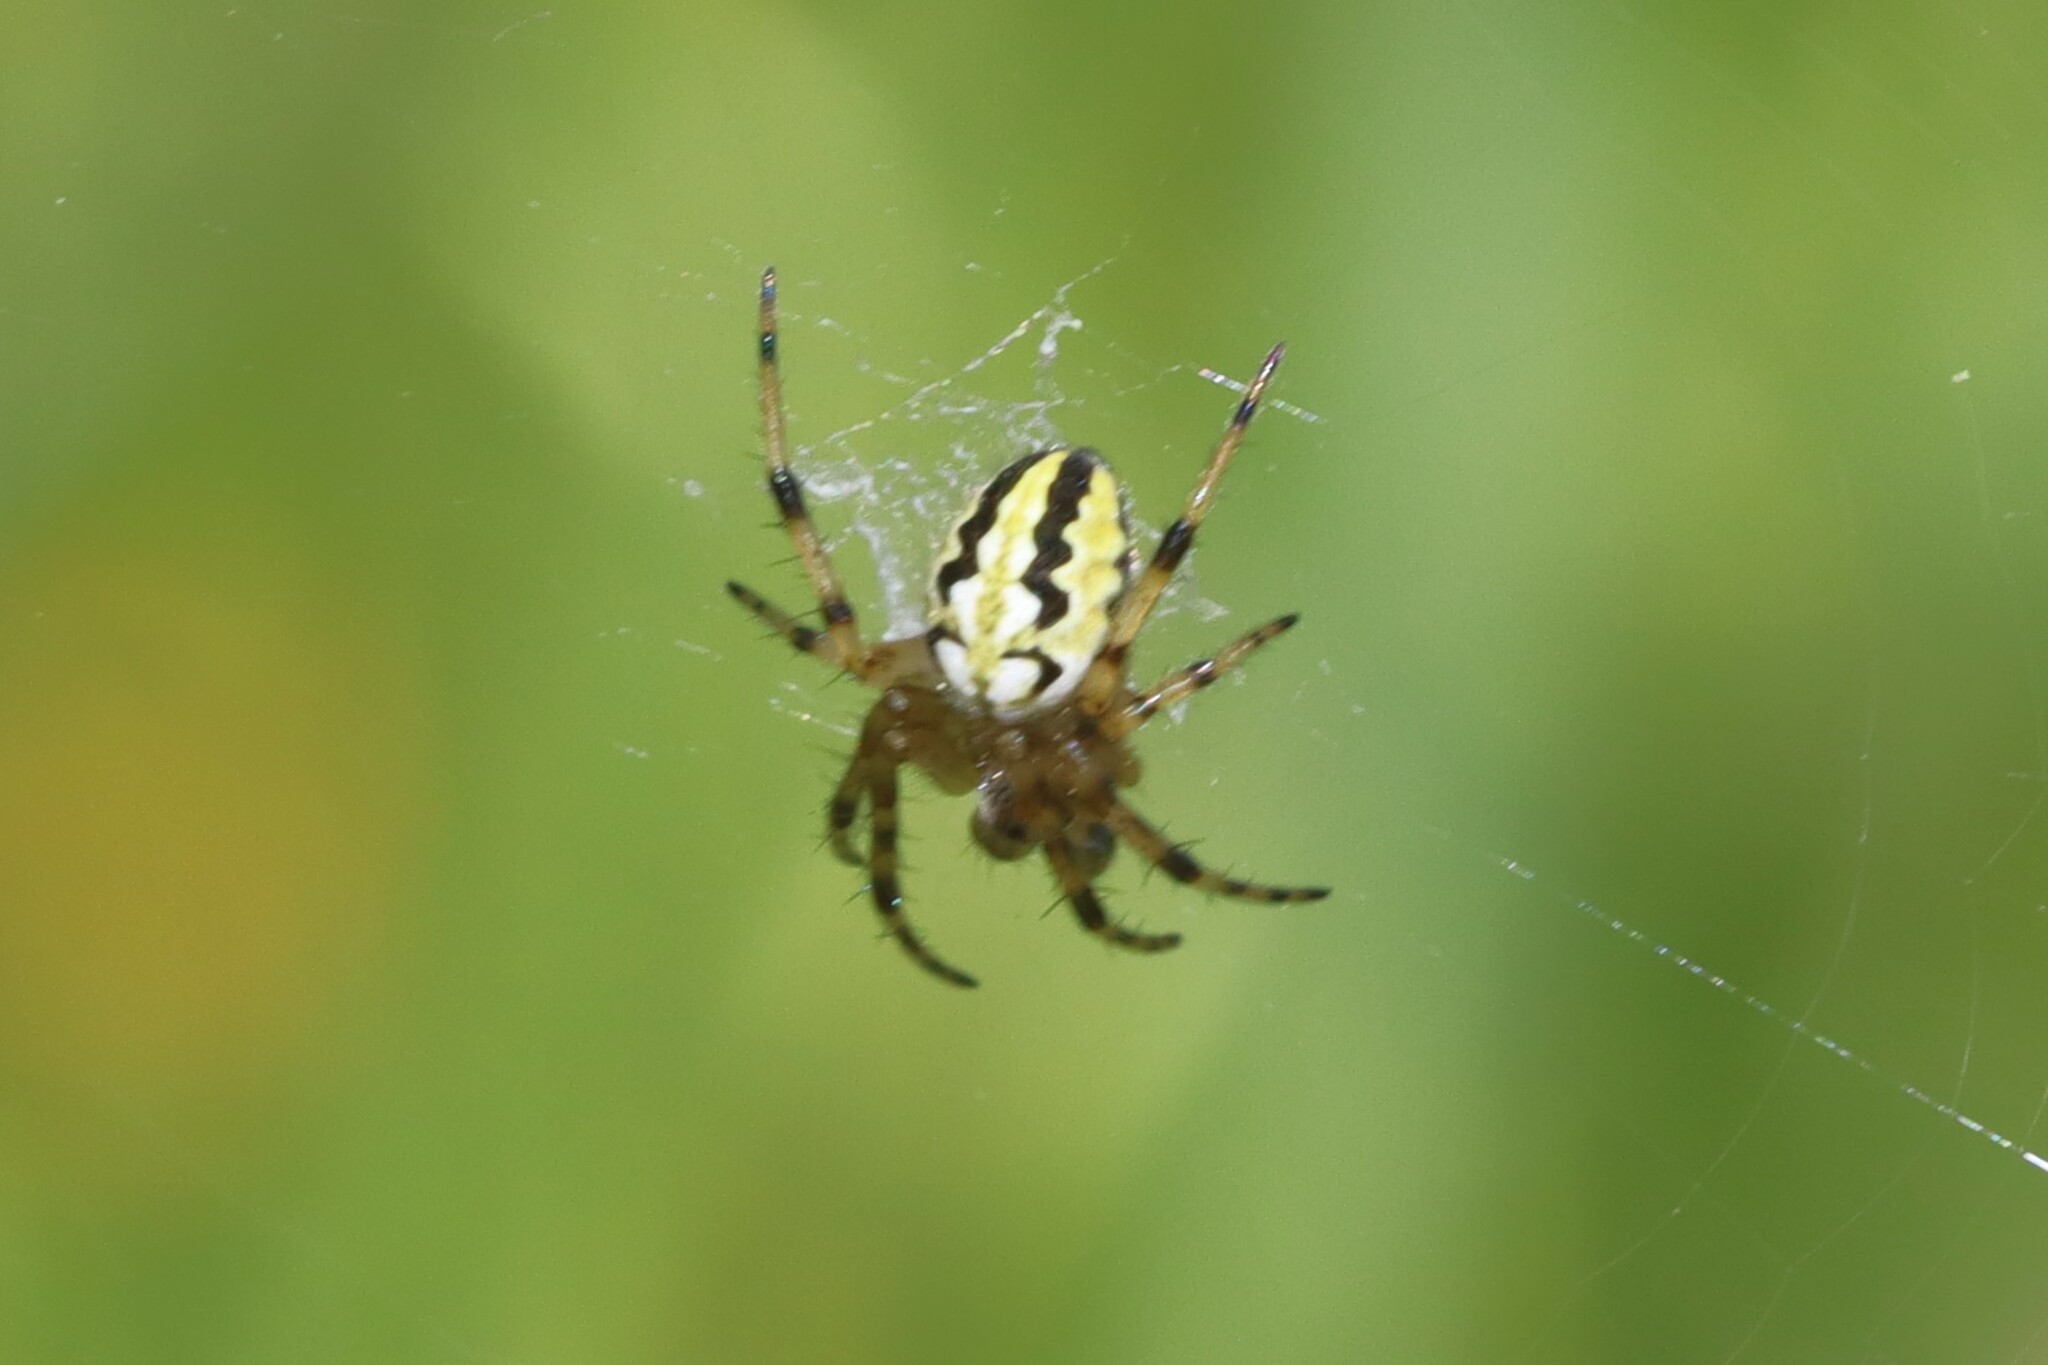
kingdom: Animalia
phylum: Arthropoda
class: Arachnida
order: Araneae
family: Araneidae
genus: Neoscona
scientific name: Neoscona adianta
